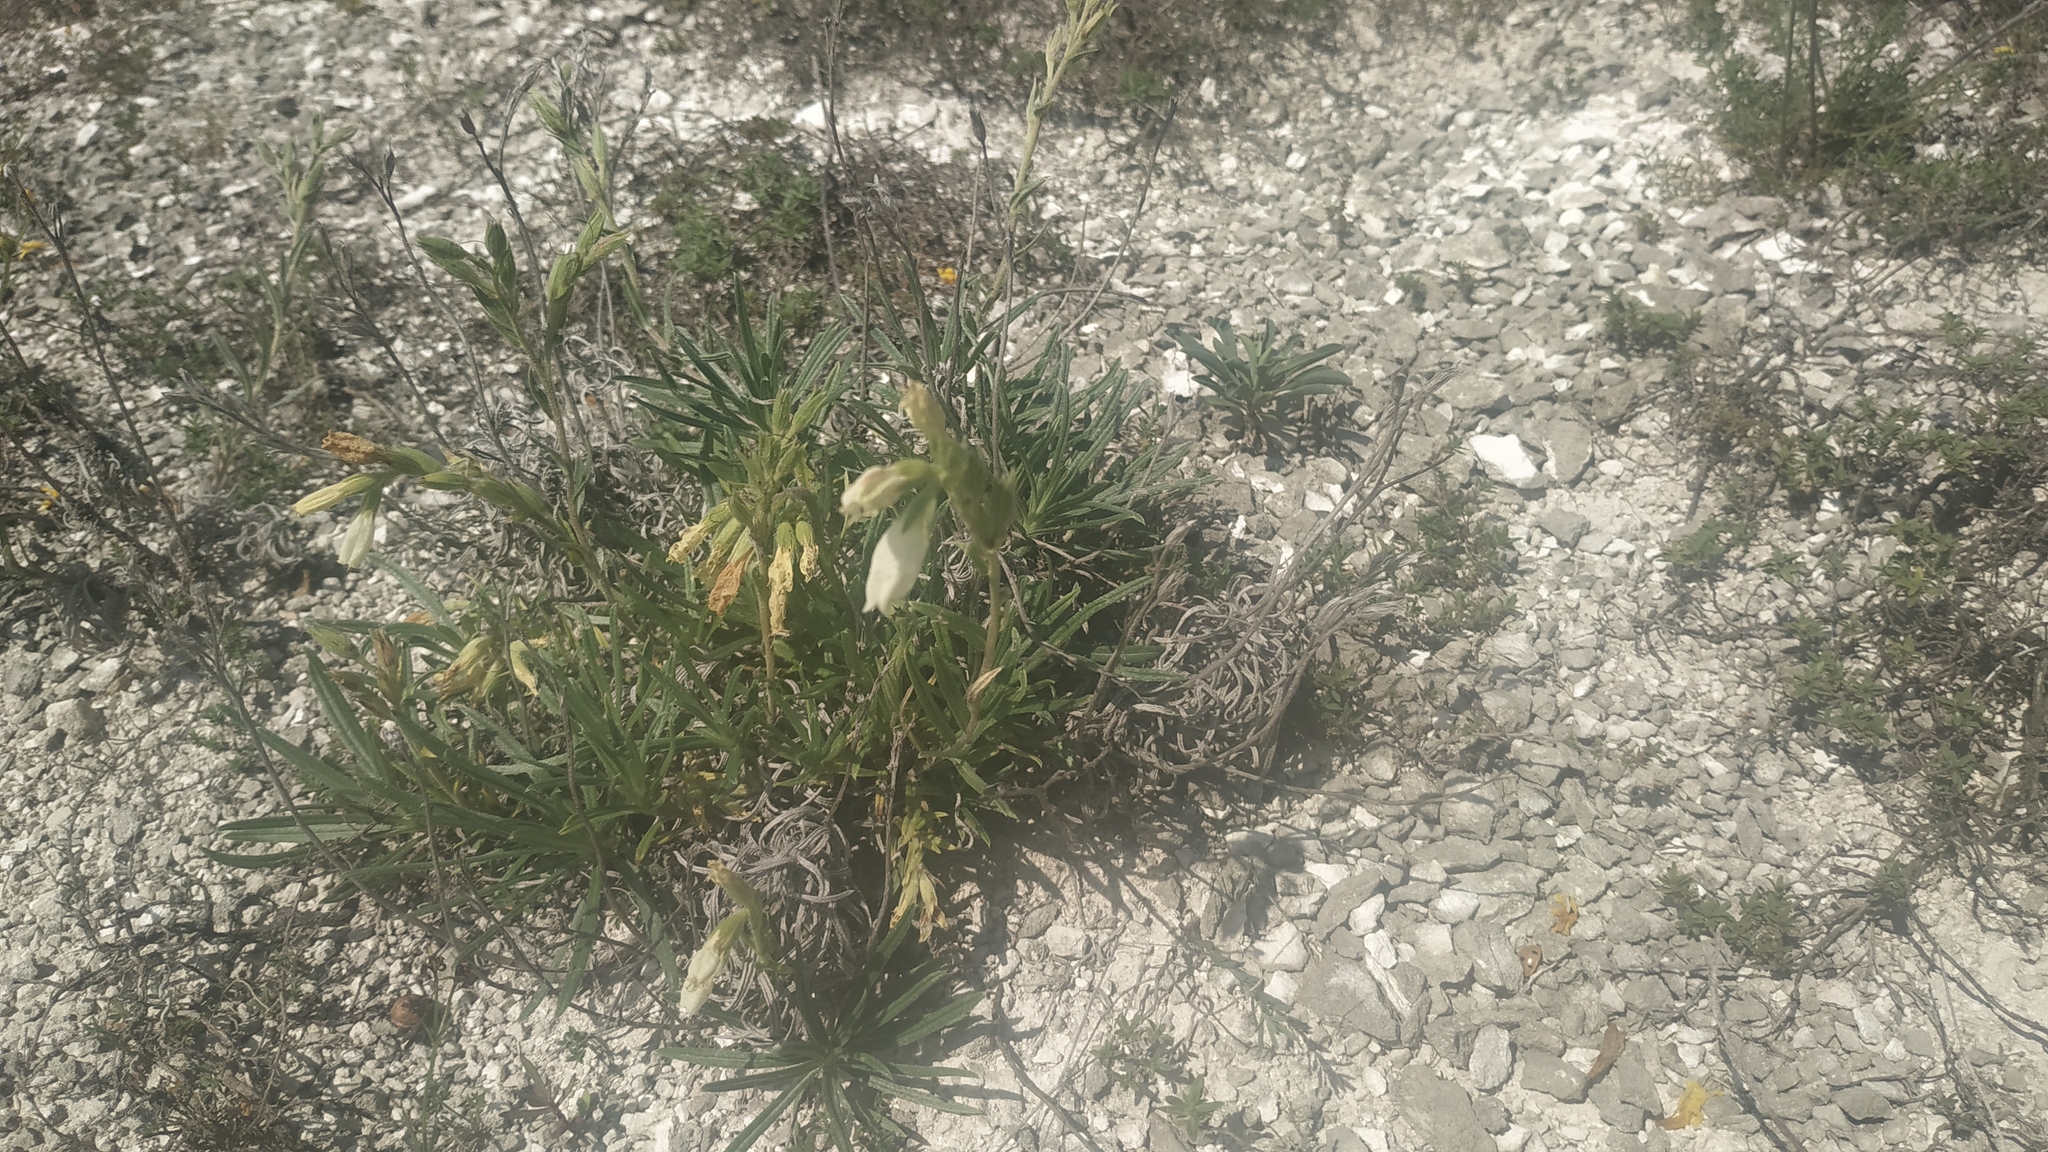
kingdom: Plantae
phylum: Tracheophyta
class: Magnoliopsida
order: Boraginales
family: Boraginaceae
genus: Onosma
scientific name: Onosma simplicissima
